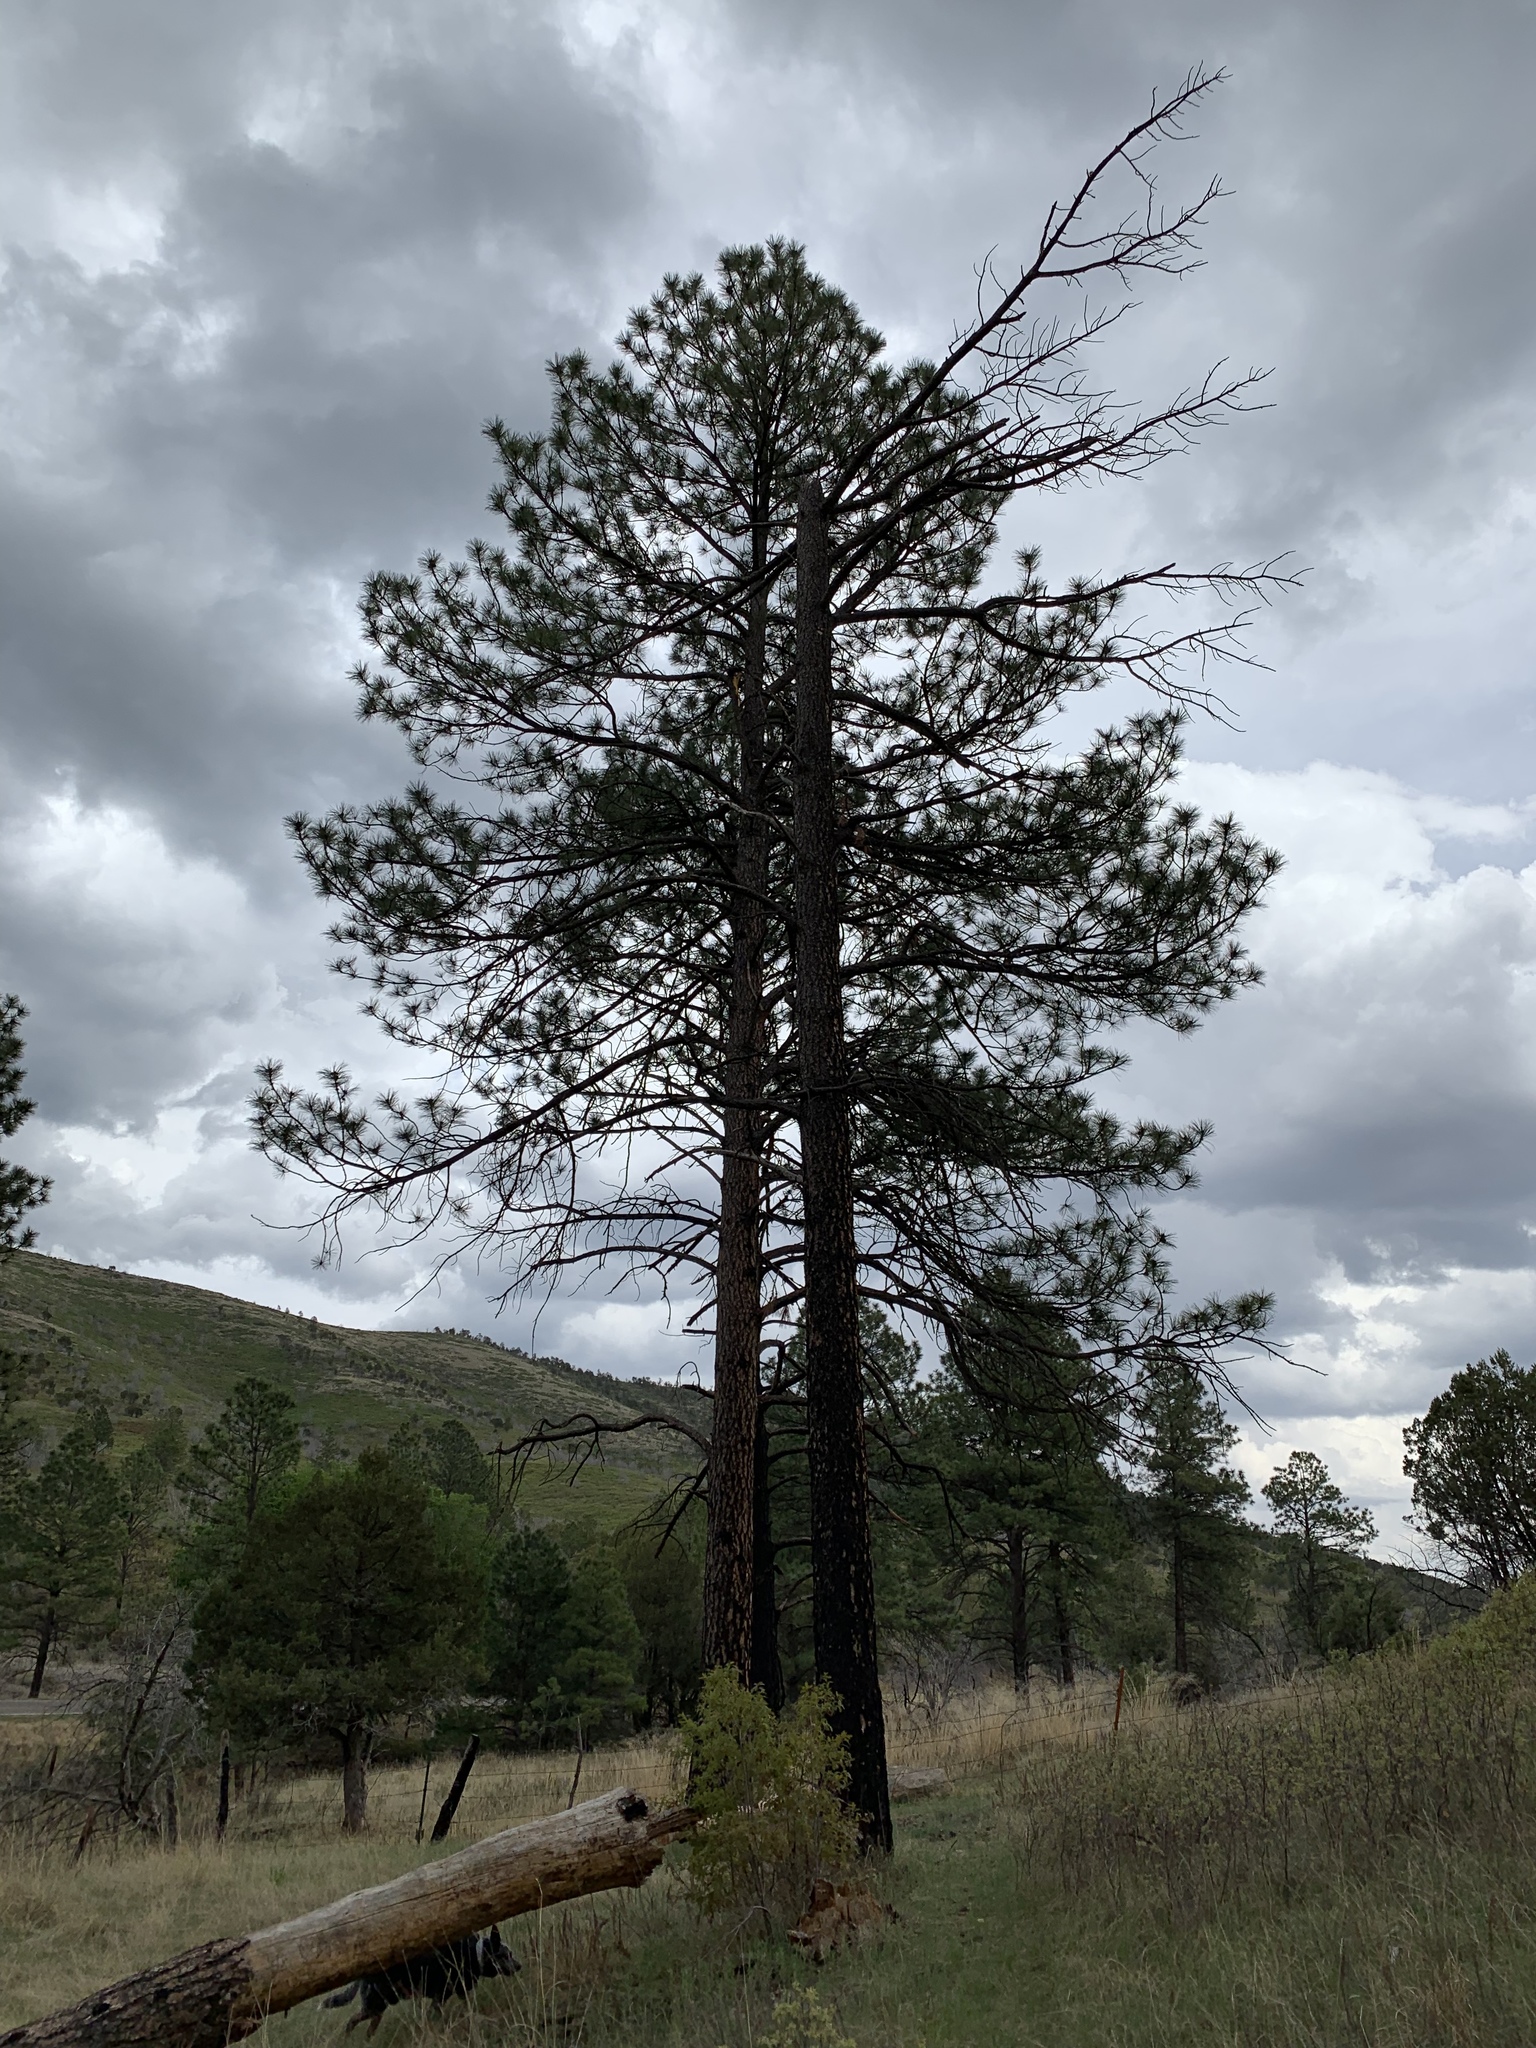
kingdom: Plantae
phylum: Tracheophyta
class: Pinopsida
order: Pinales
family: Pinaceae
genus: Pinus
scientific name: Pinus ponderosa
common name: Western yellow-pine
